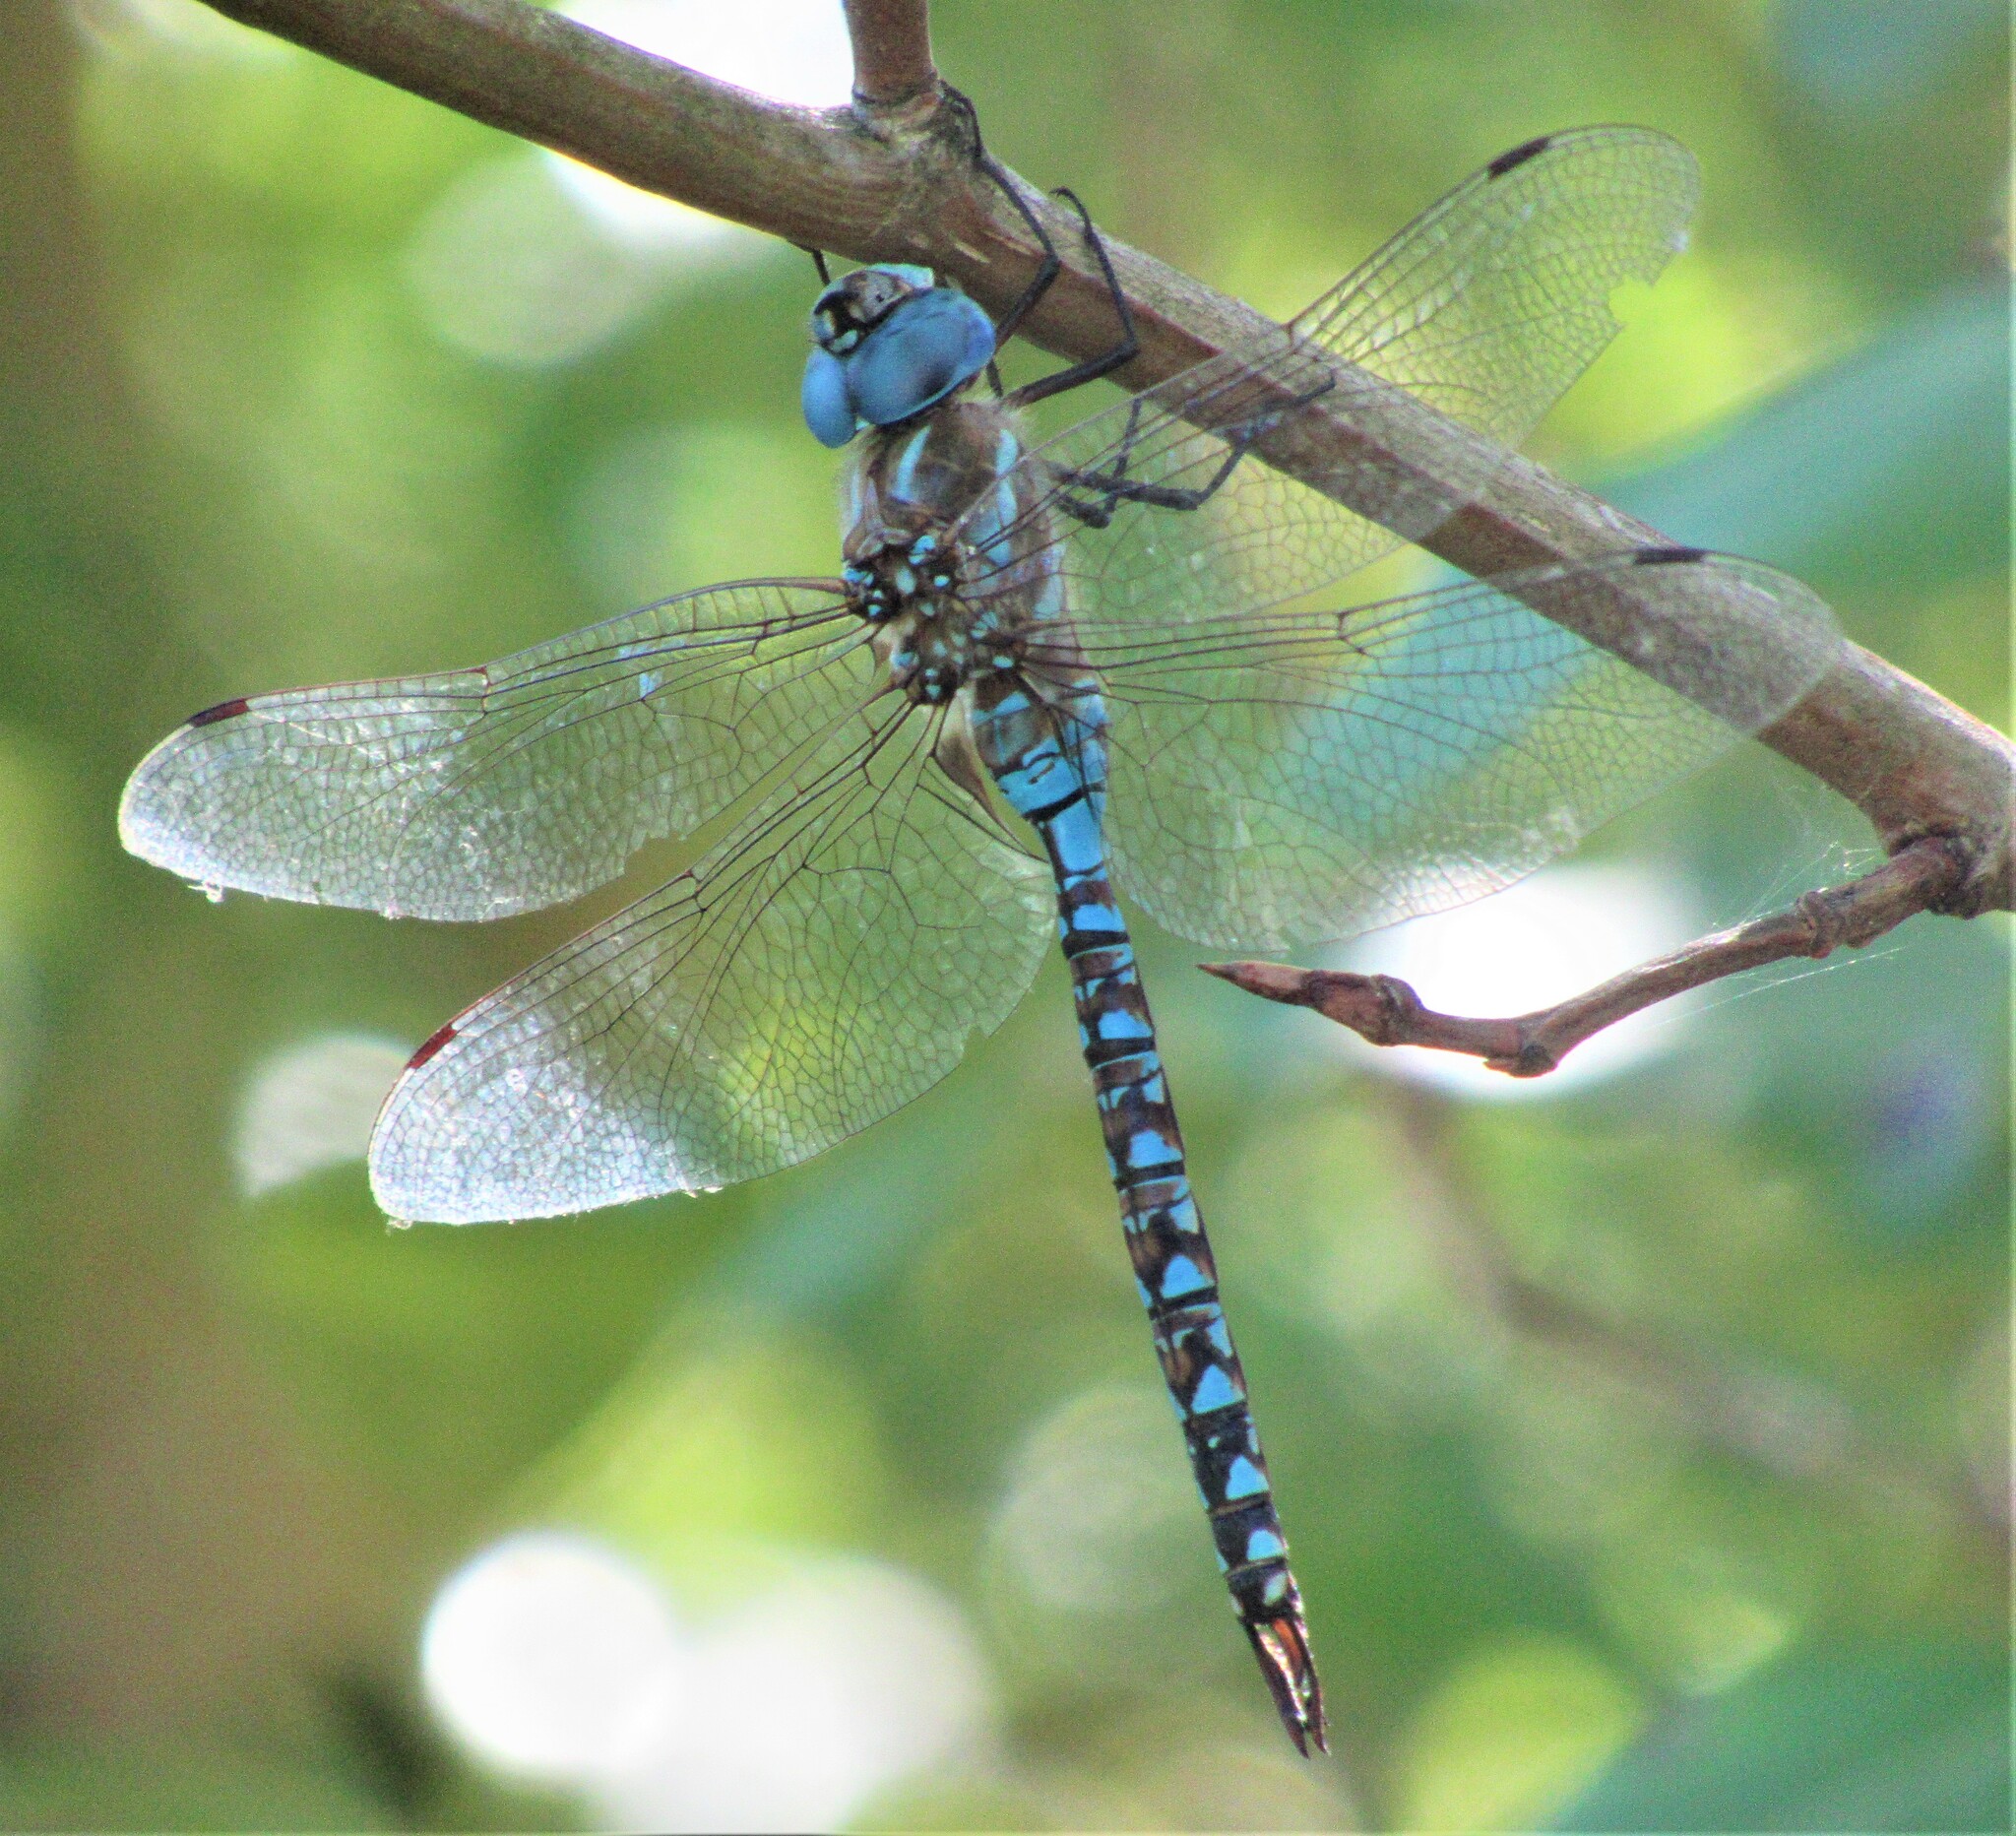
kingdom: Animalia
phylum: Arthropoda
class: Insecta
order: Odonata
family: Aeshnidae
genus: Rhionaeschna
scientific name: Rhionaeschna multicolor
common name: Blue-eyed darner
